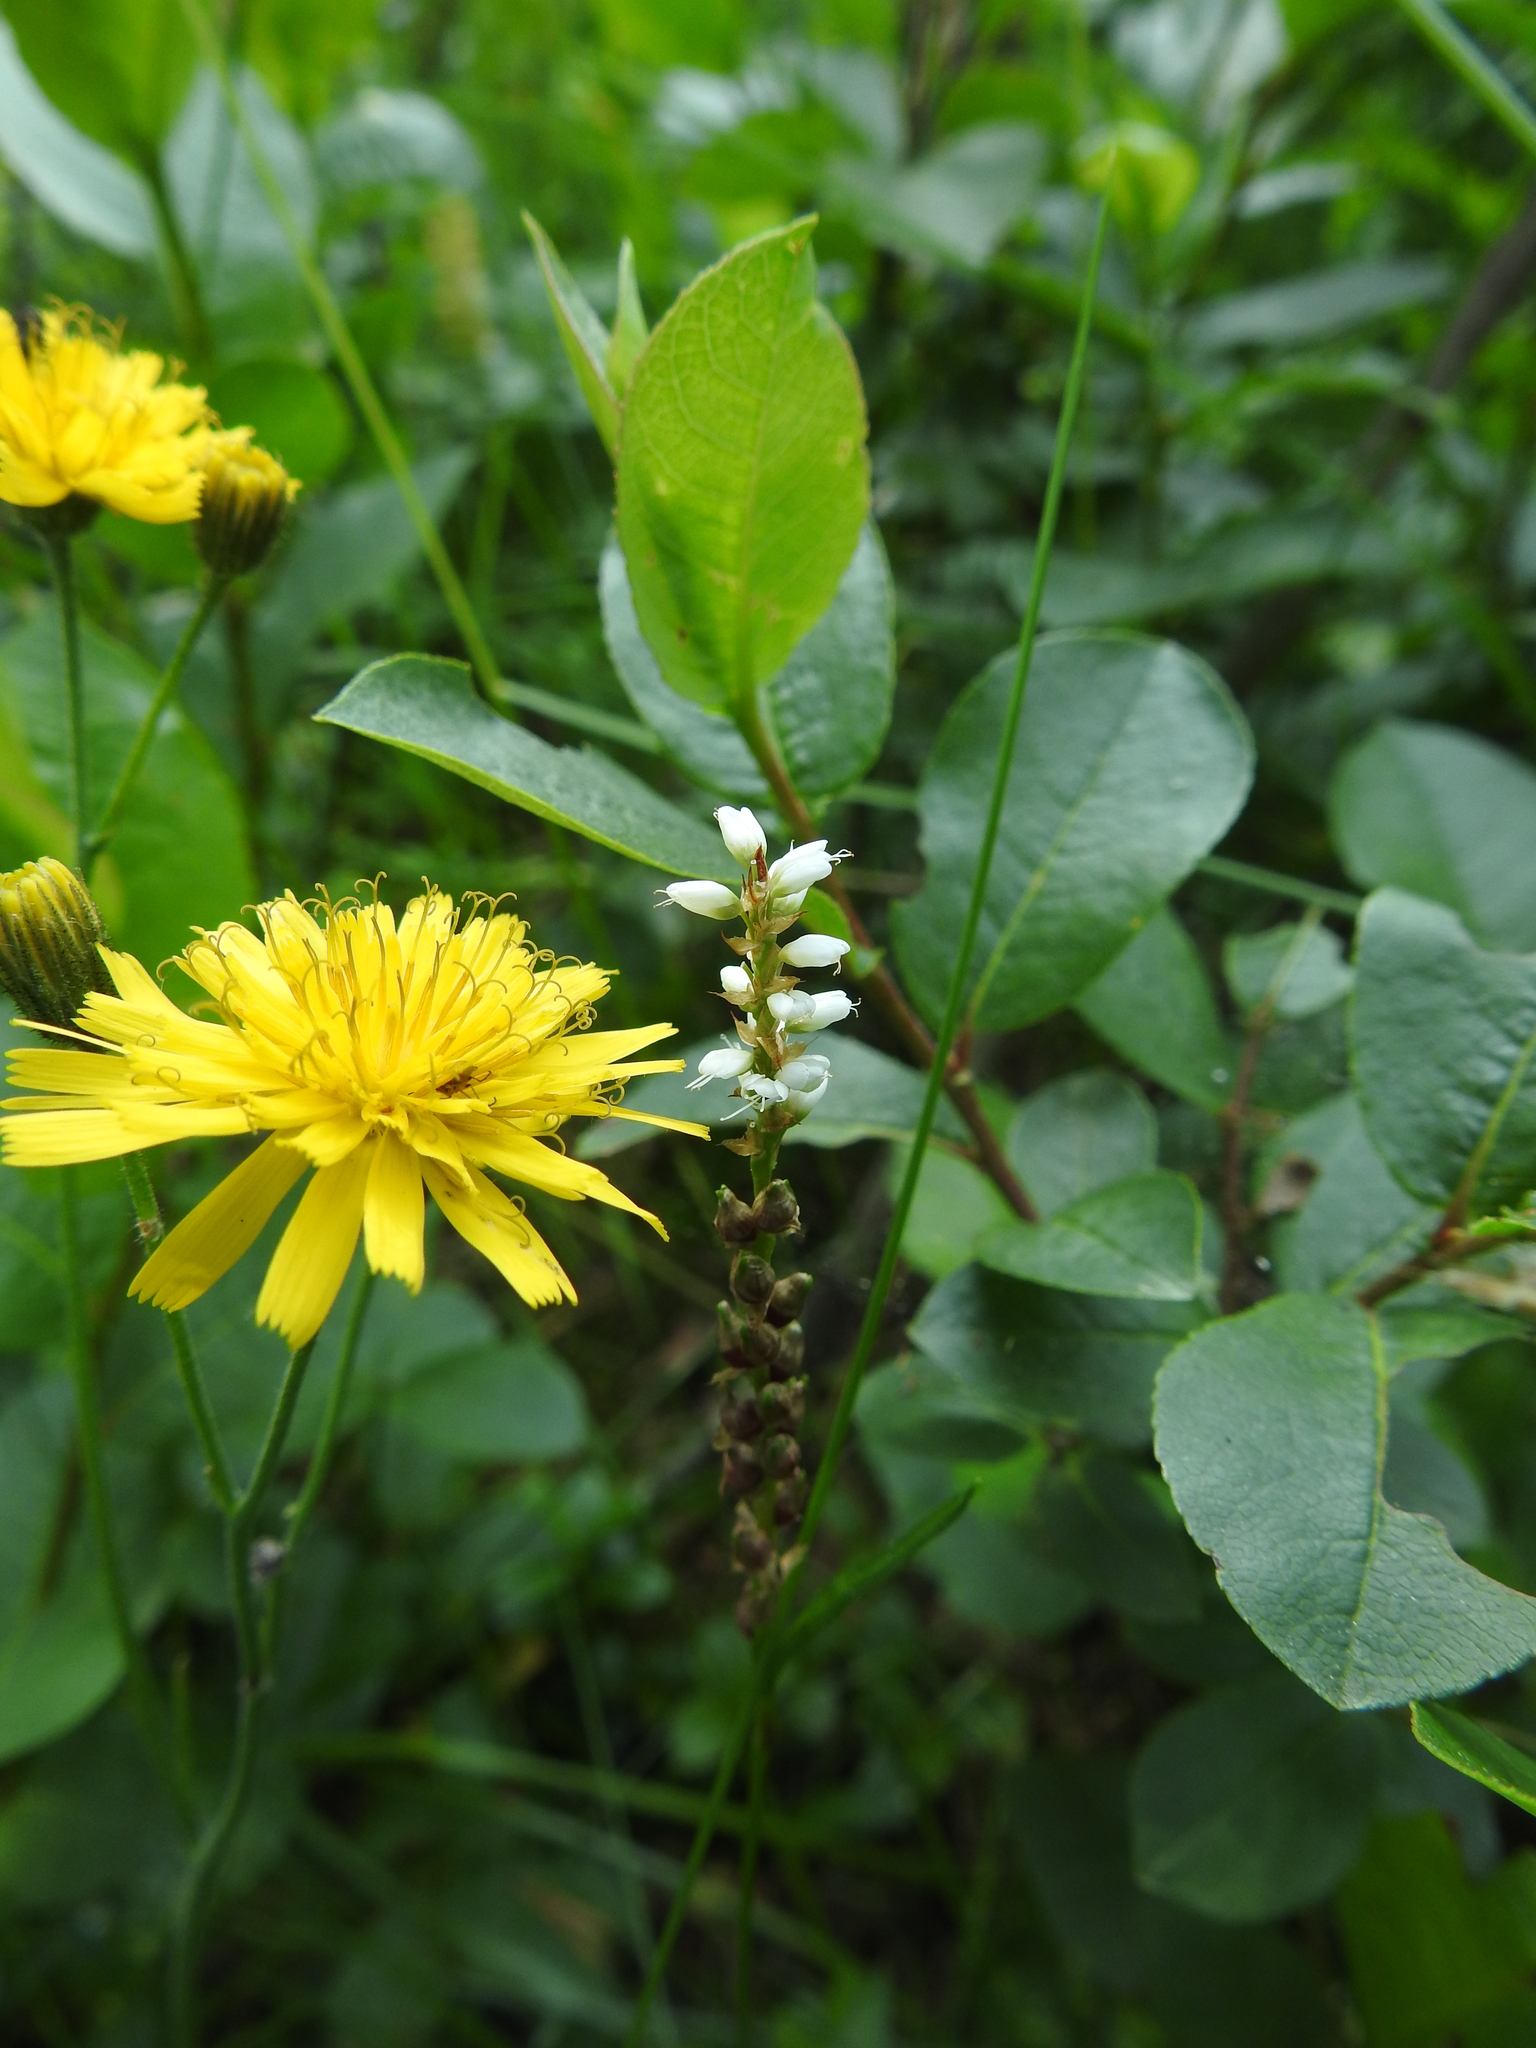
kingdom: Plantae
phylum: Tracheophyta
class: Magnoliopsida
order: Caryophyllales
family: Polygonaceae
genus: Bistorta
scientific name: Bistorta vivipara
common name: Alpine bistort
